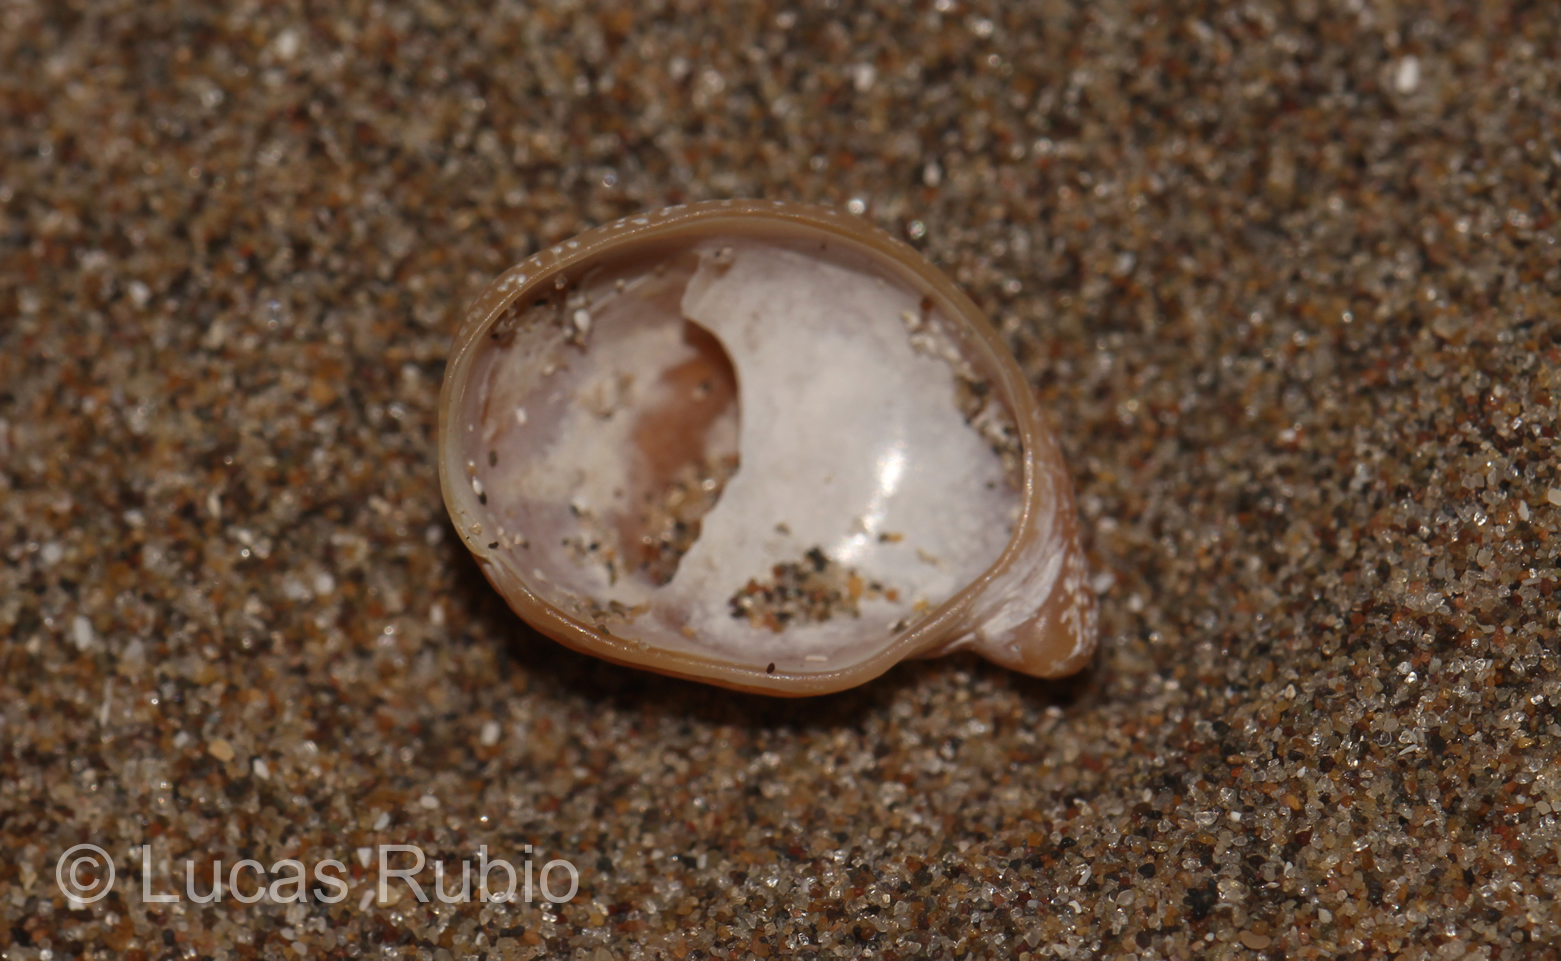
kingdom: Animalia
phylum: Mollusca
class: Gastropoda
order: Littorinimorpha
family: Calyptraeidae
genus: Crepidula
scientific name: Crepidula cachimilla
